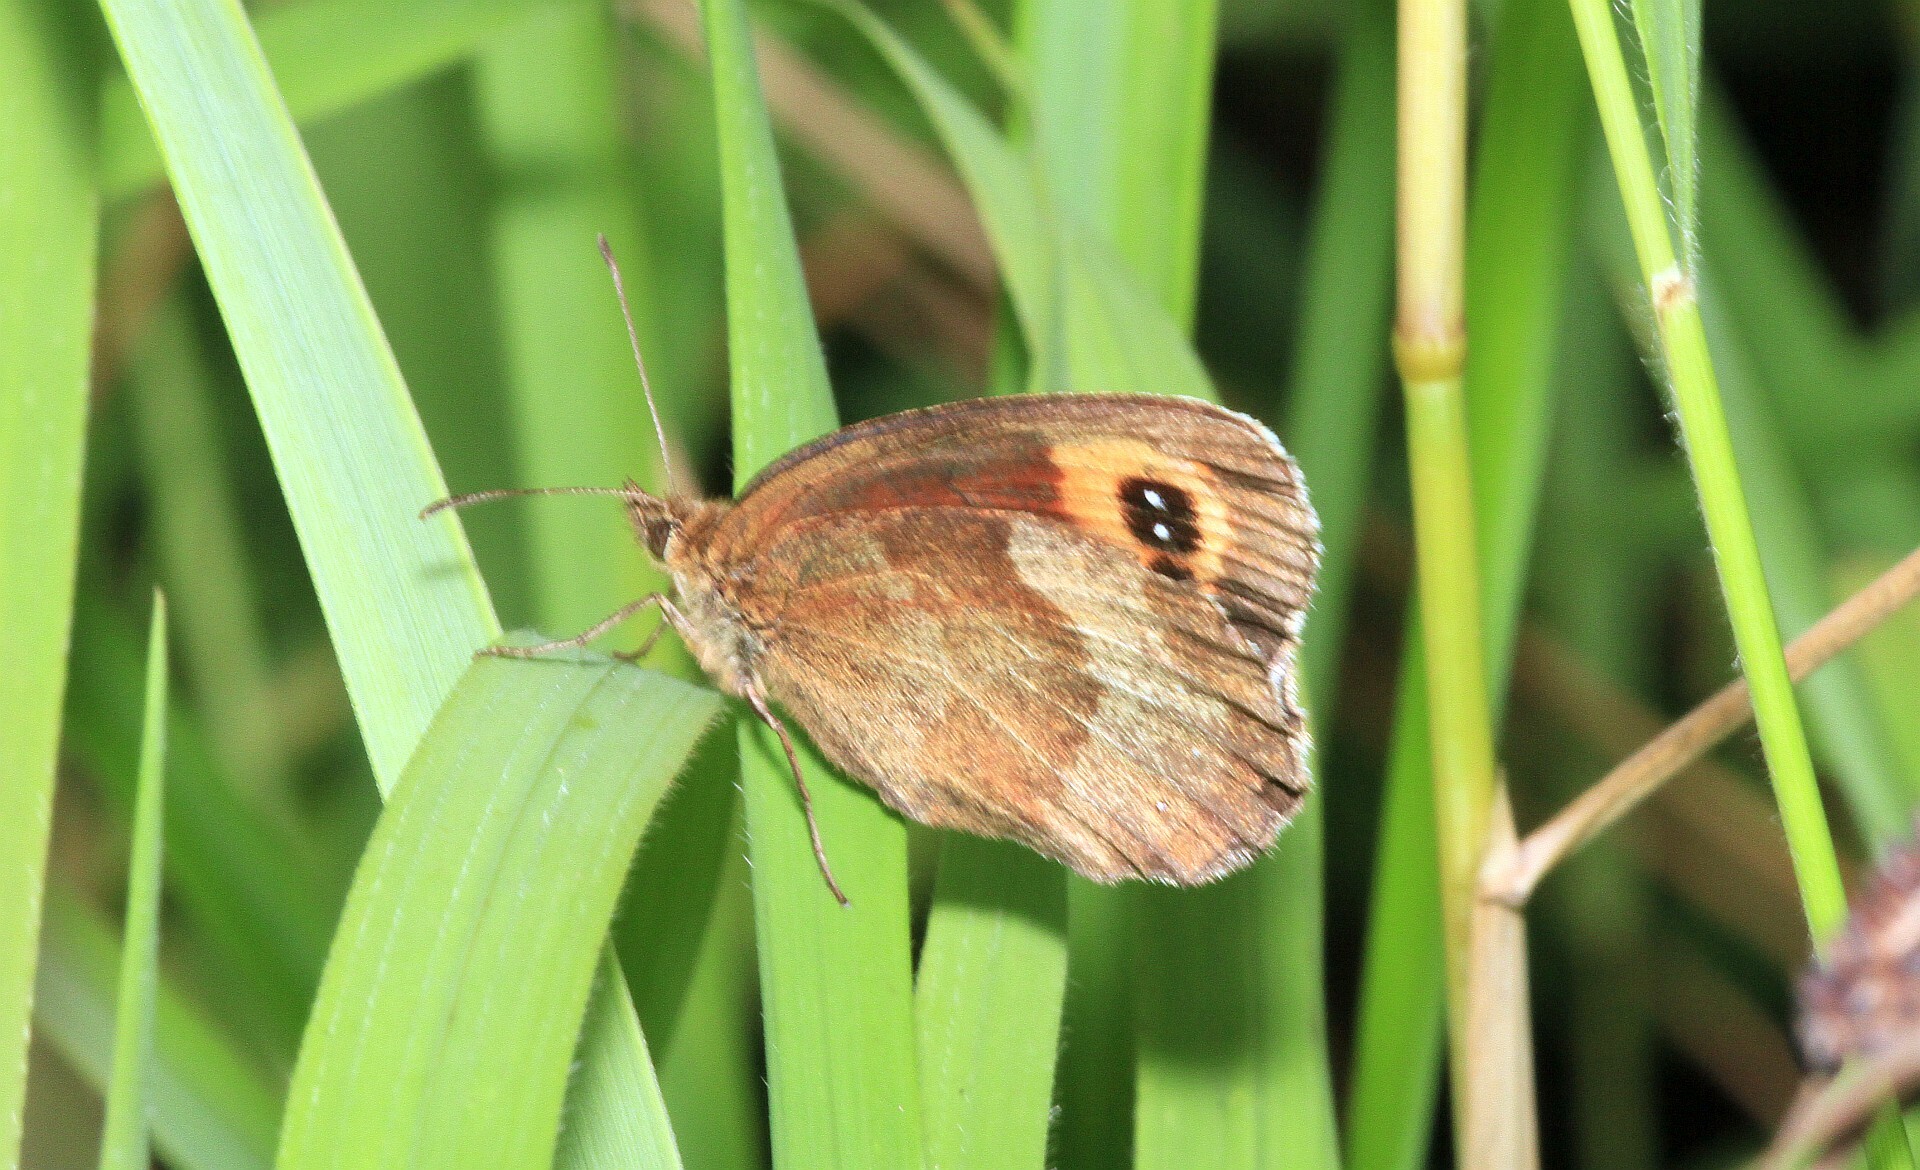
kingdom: Animalia
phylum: Arthropoda
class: Insecta
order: Lepidoptera
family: Nymphalidae
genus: Erebia
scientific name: Erebia aethiops
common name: Scotch argus
